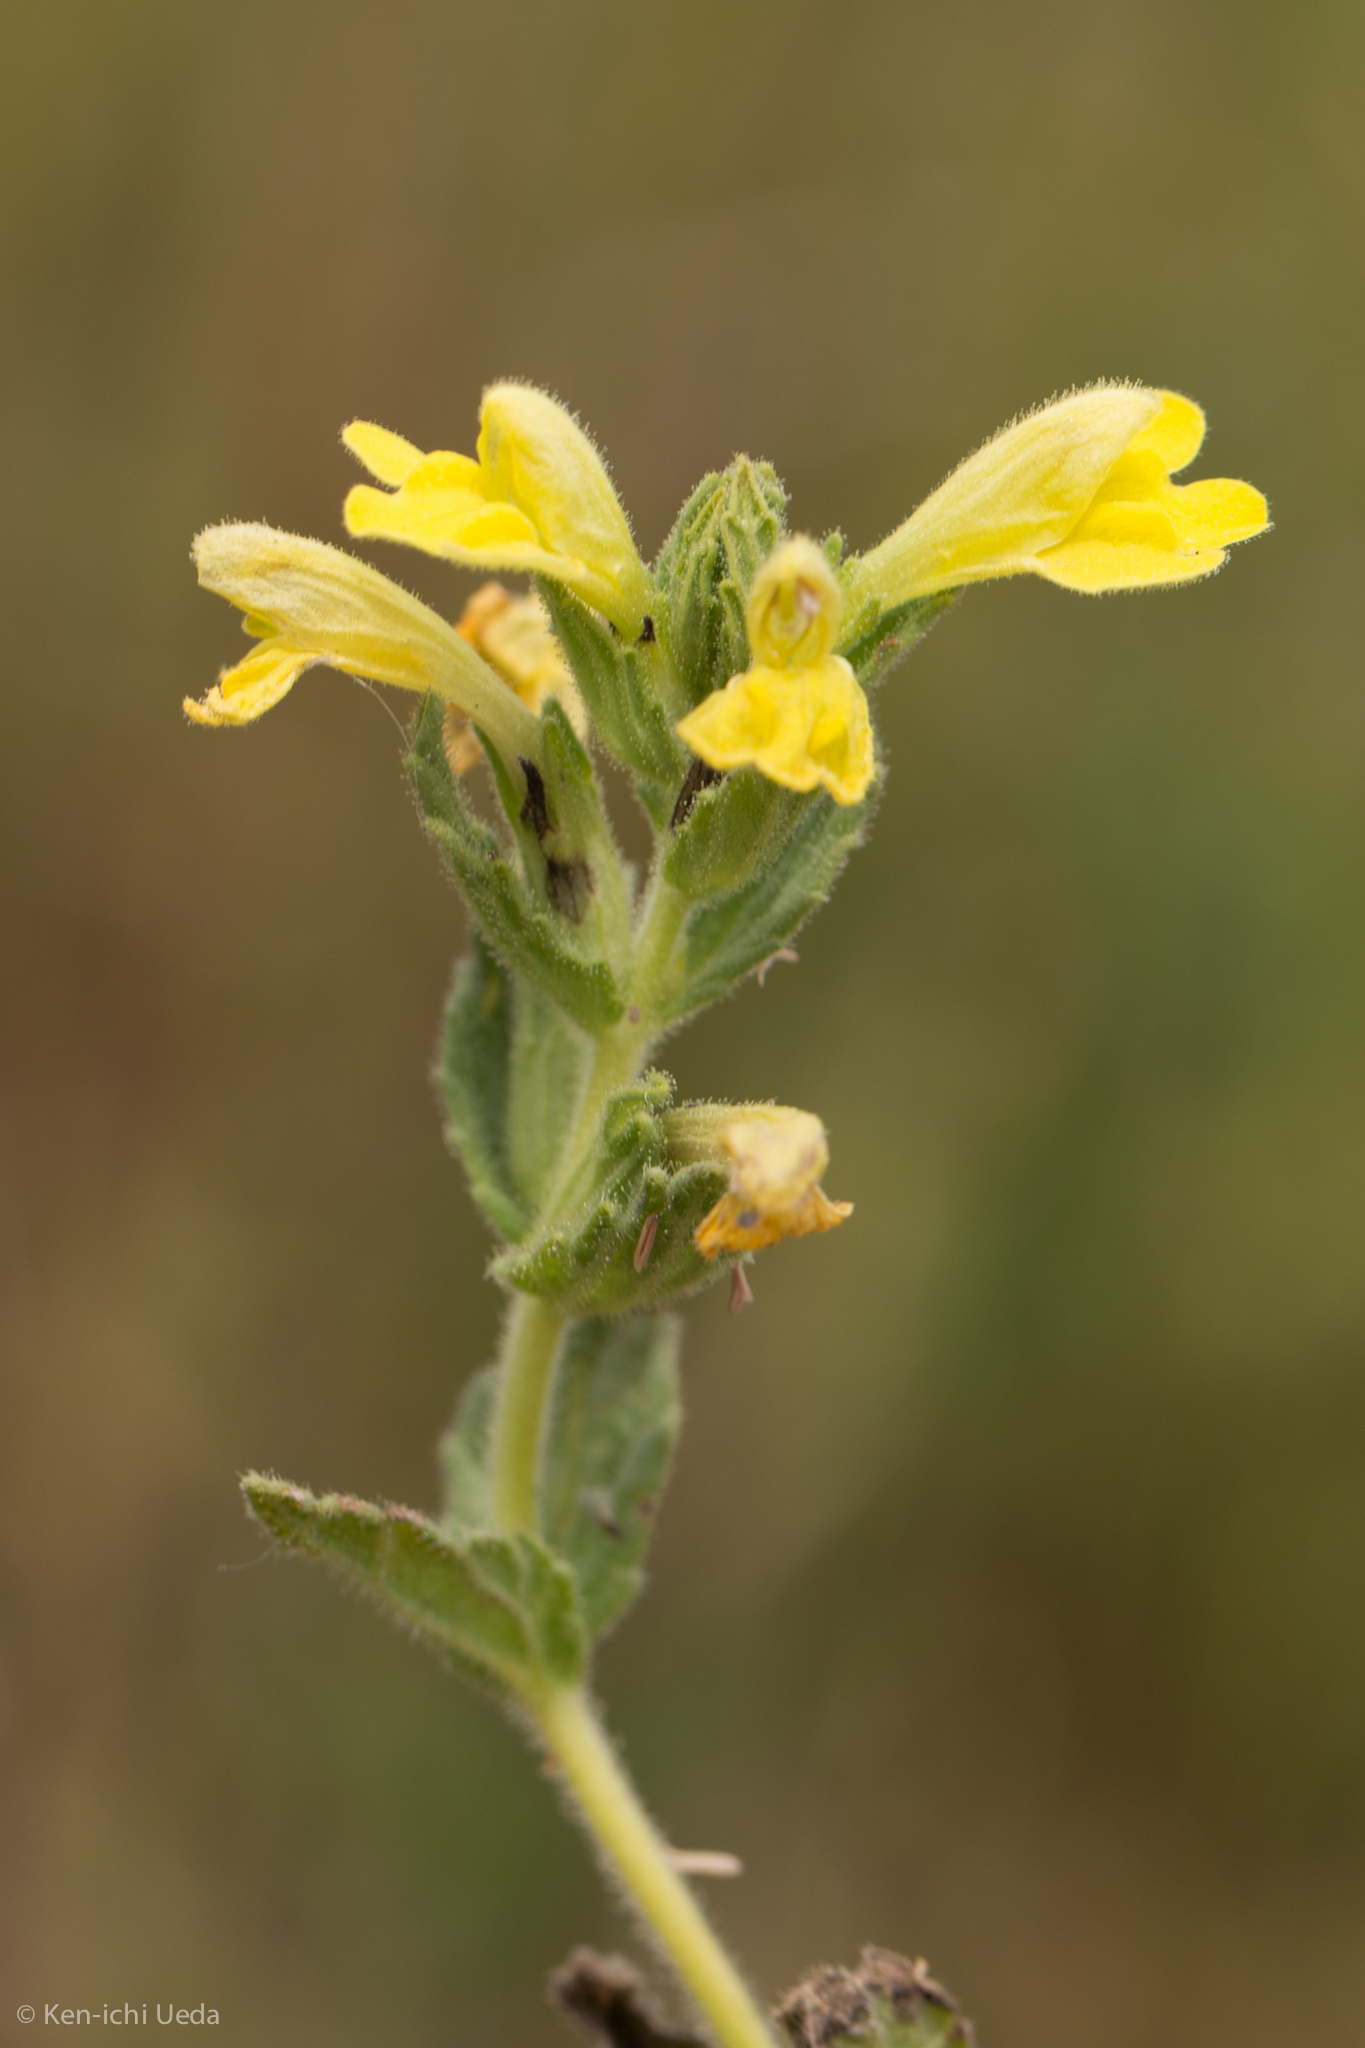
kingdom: Plantae
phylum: Tracheophyta
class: Magnoliopsida
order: Lamiales
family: Orobanchaceae
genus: Bellardia
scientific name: Bellardia viscosa
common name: Sticky parentucellia
